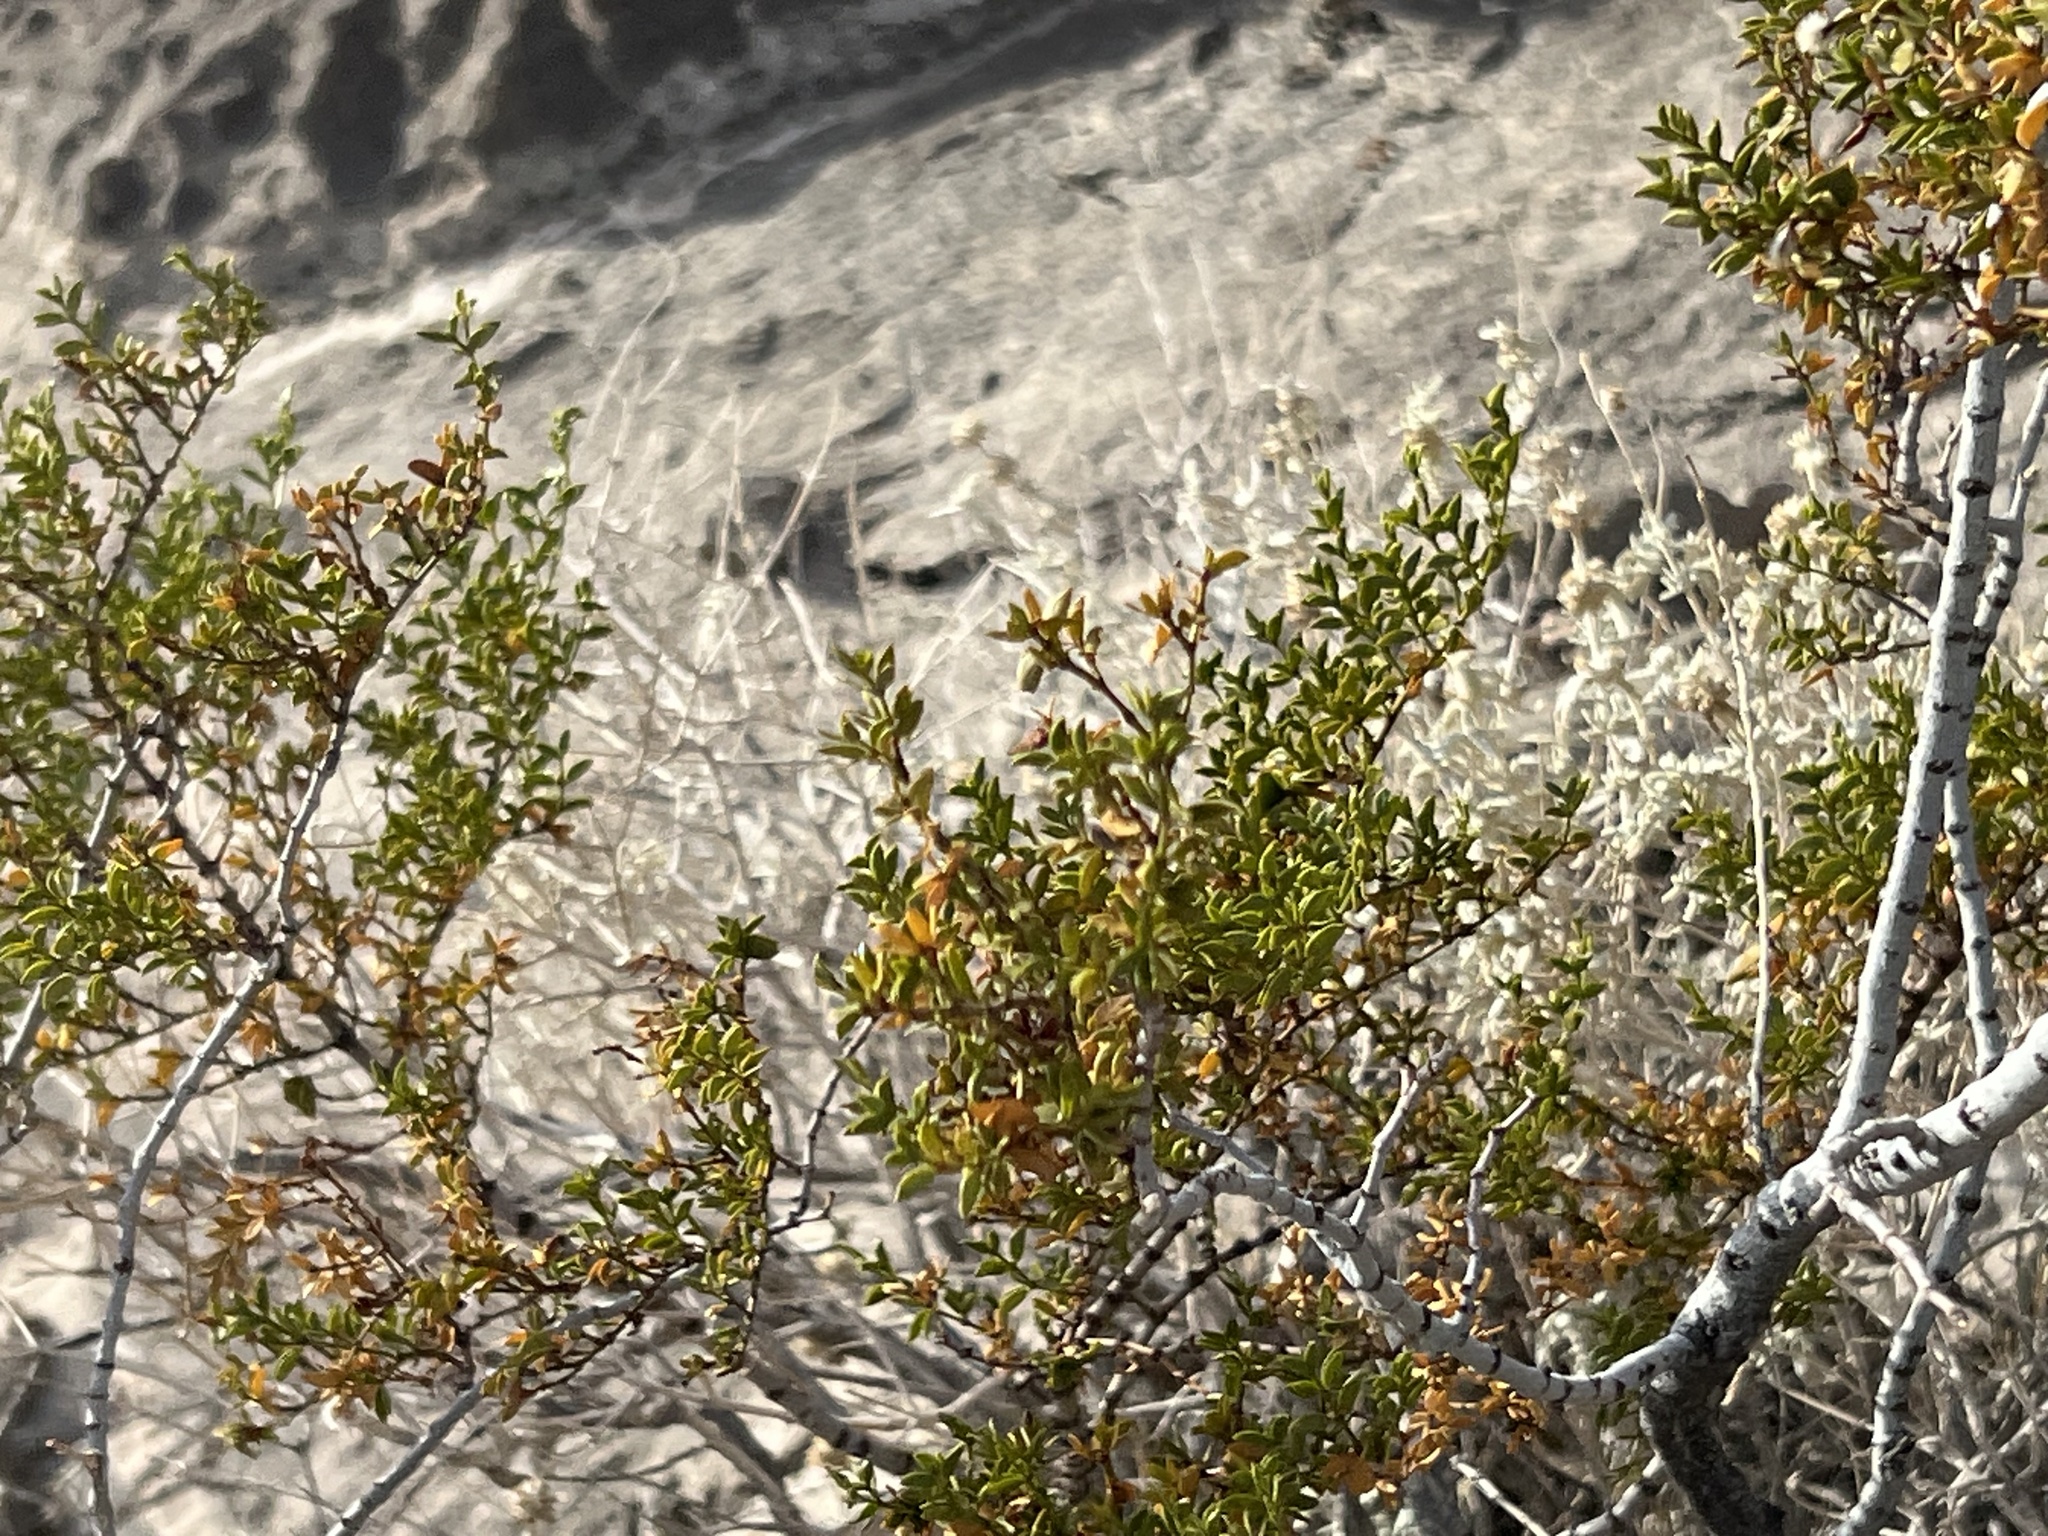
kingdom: Plantae
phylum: Tracheophyta
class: Magnoliopsida
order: Zygophyllales
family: Zygophyllaceae
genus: Larrea
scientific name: Larrea tridentata
